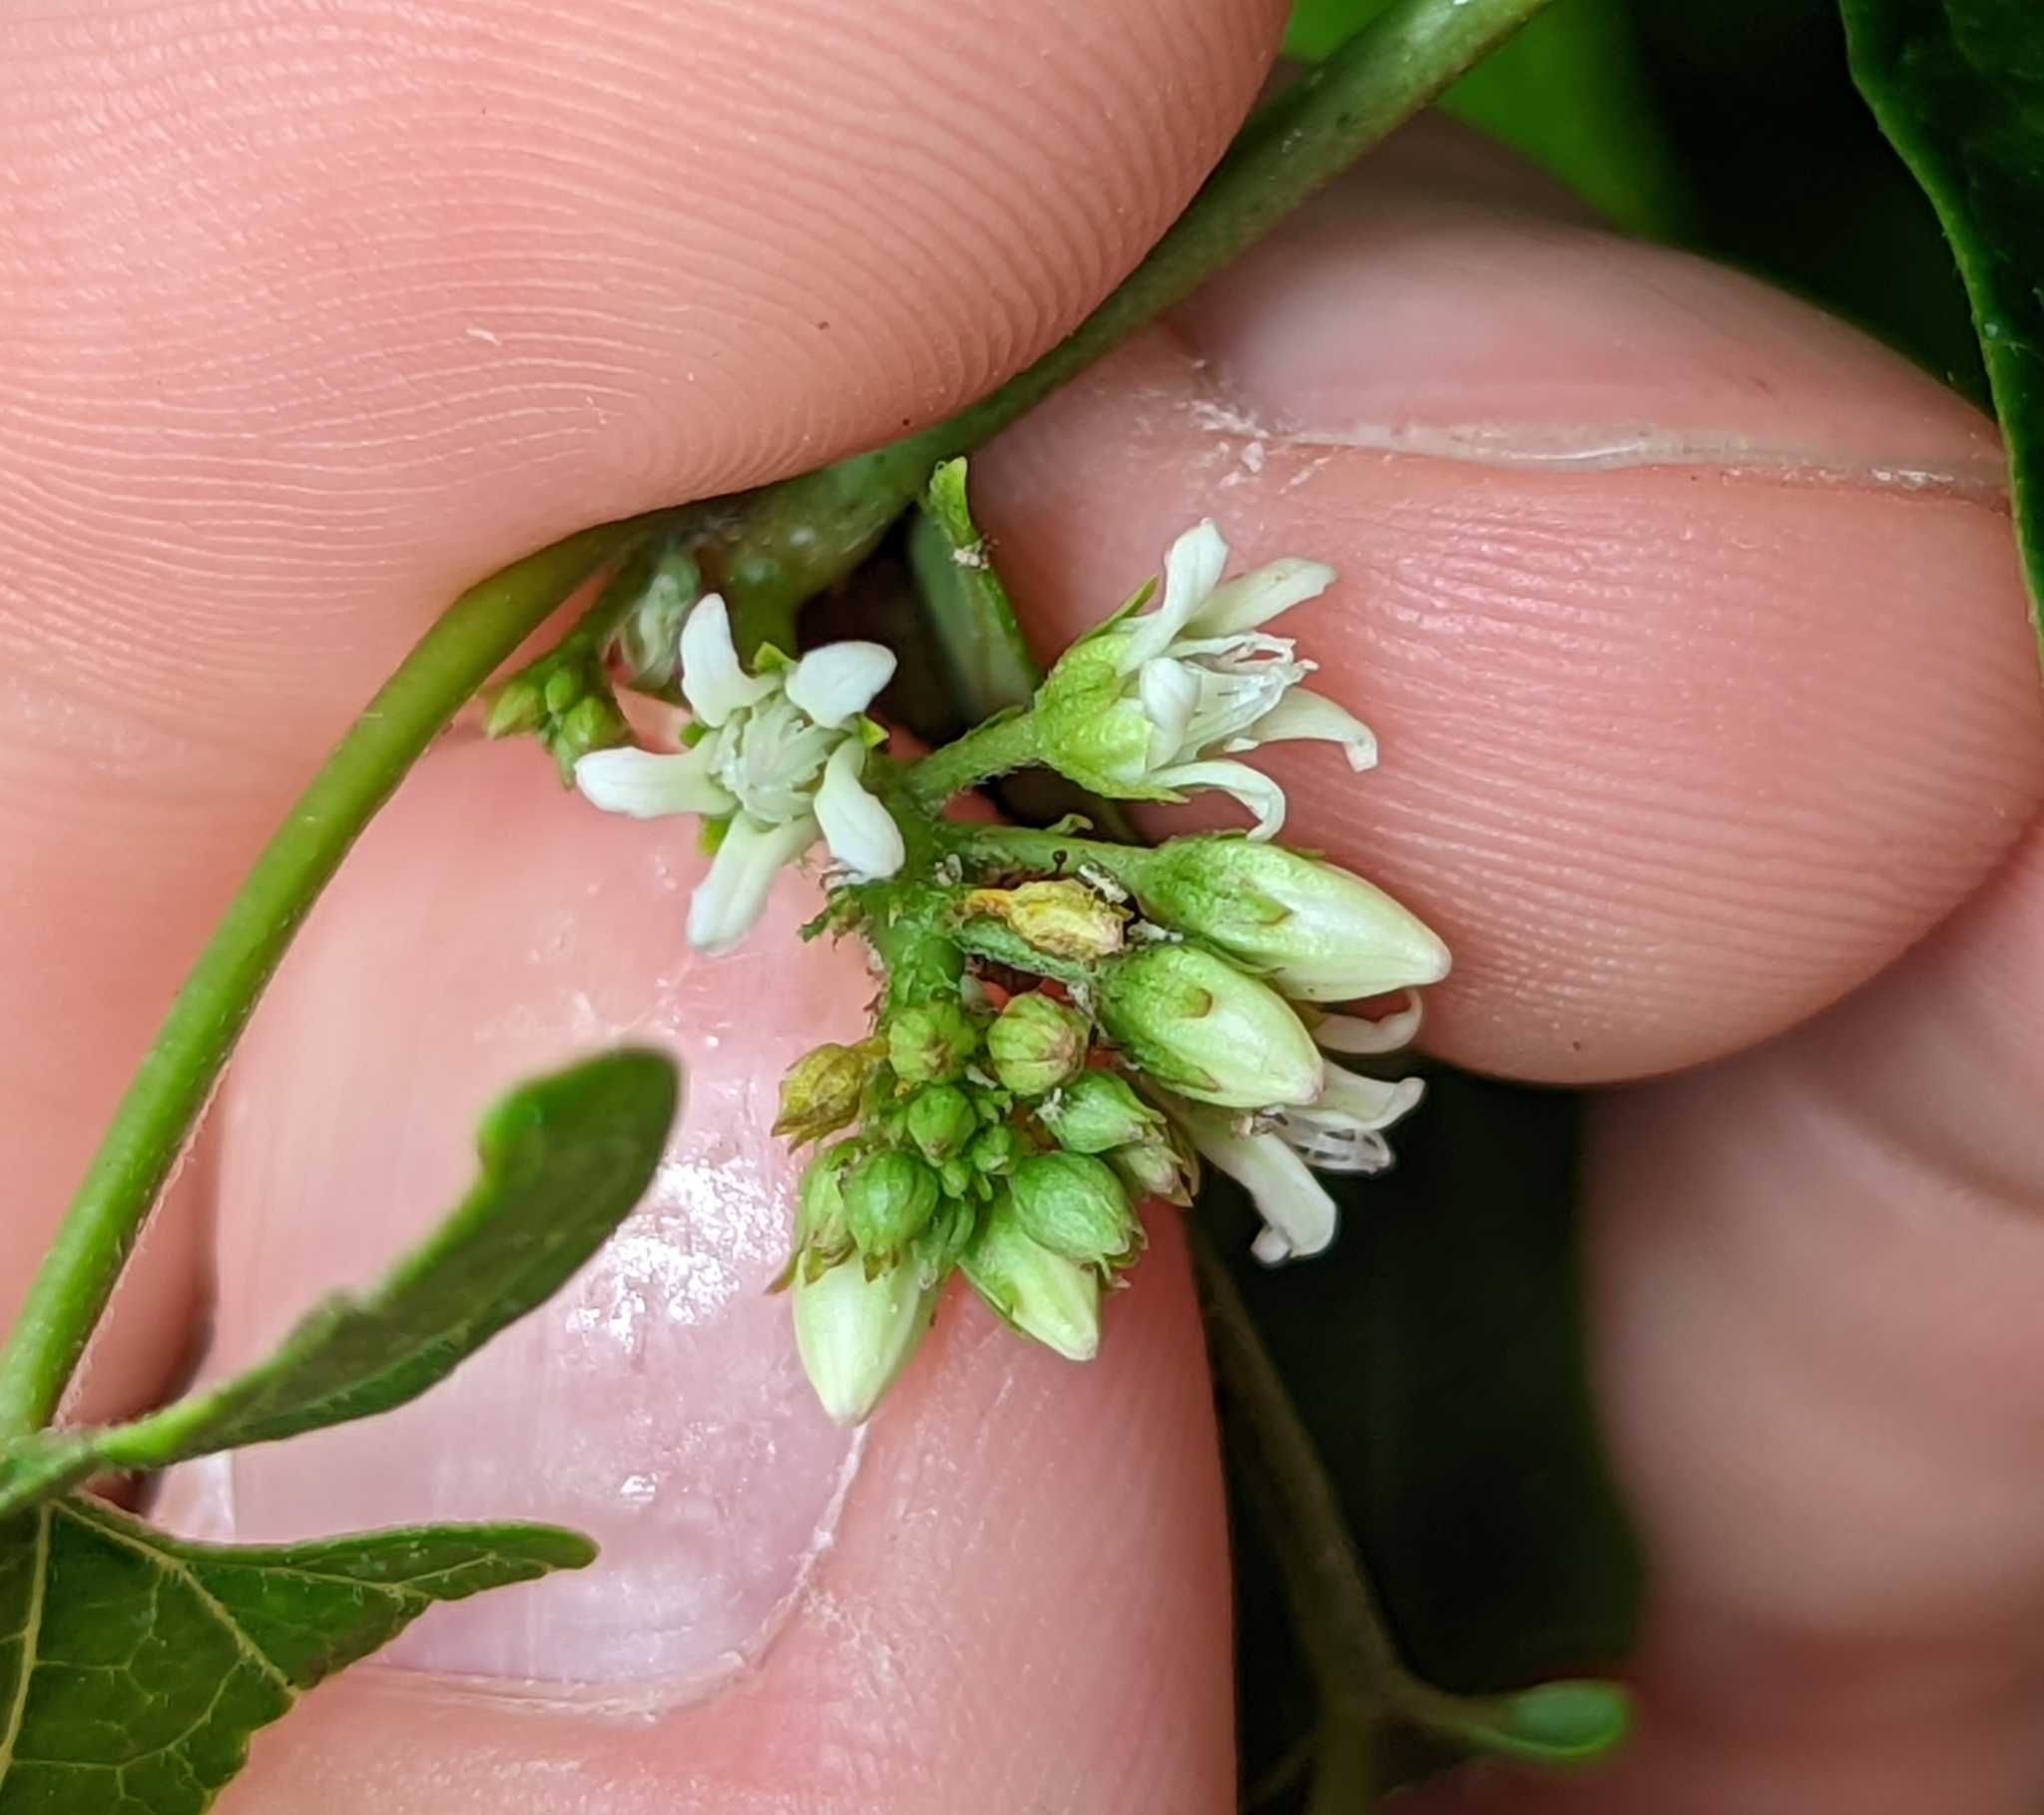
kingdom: Plantae
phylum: Tracheophyta
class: Magnoliopsida
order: Gentianales
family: Apocynaceae
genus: Cynanchum
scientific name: Cynanchum laeve
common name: Sandvine
